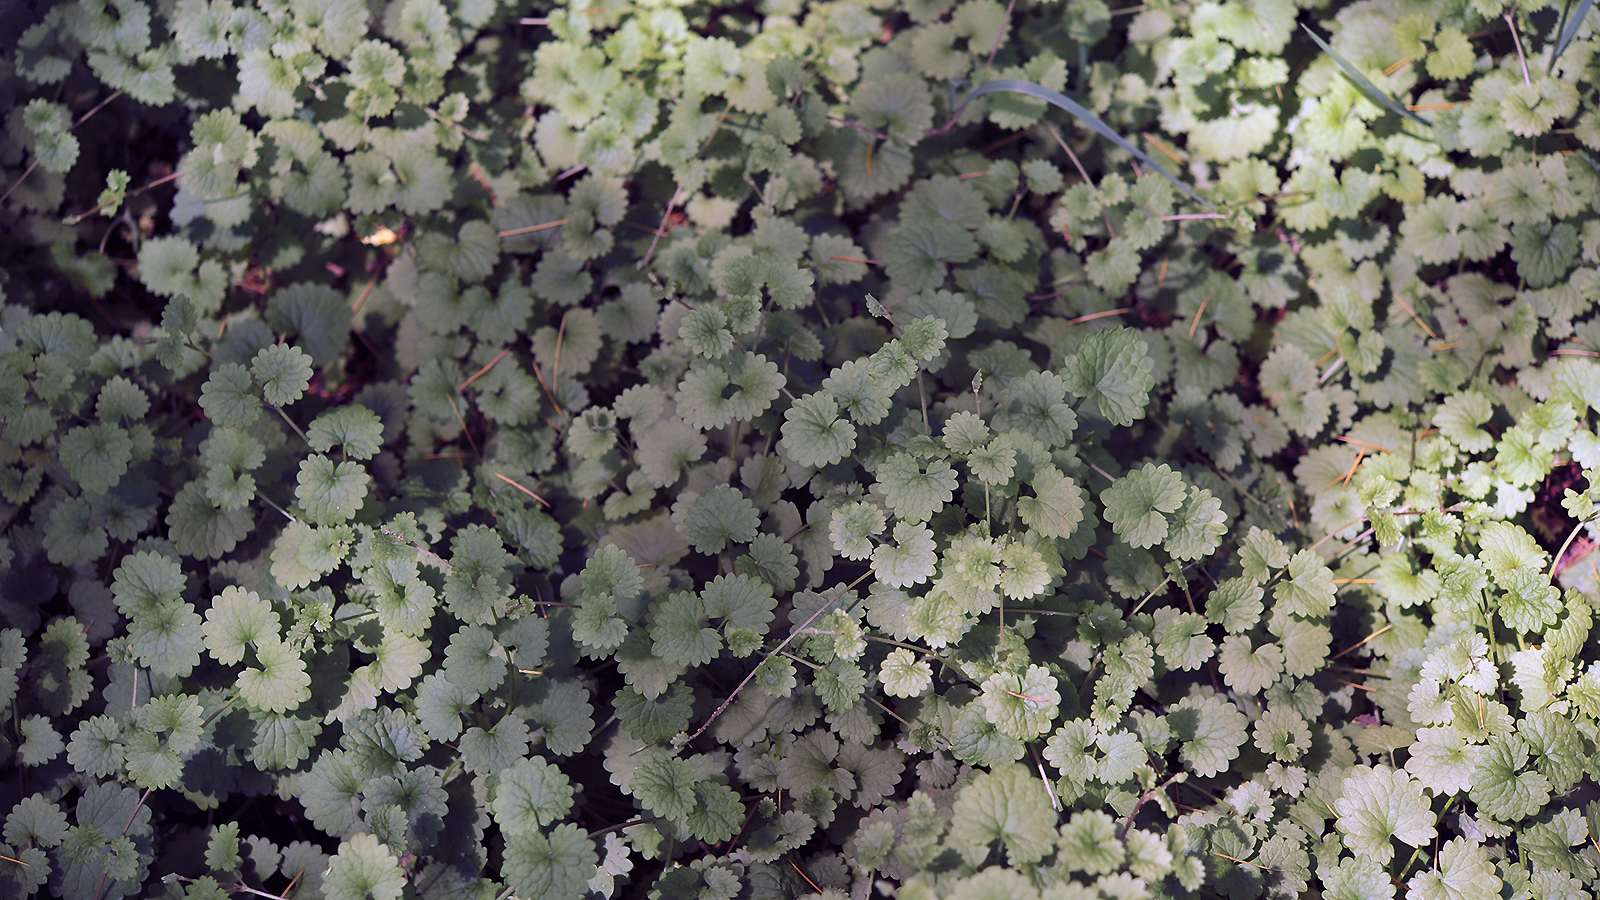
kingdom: Plantae
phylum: Tracheophyta
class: Magnoliopsida
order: Lamiales
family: Lamiaceae
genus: Glechoma
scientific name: Glechoma longituba
